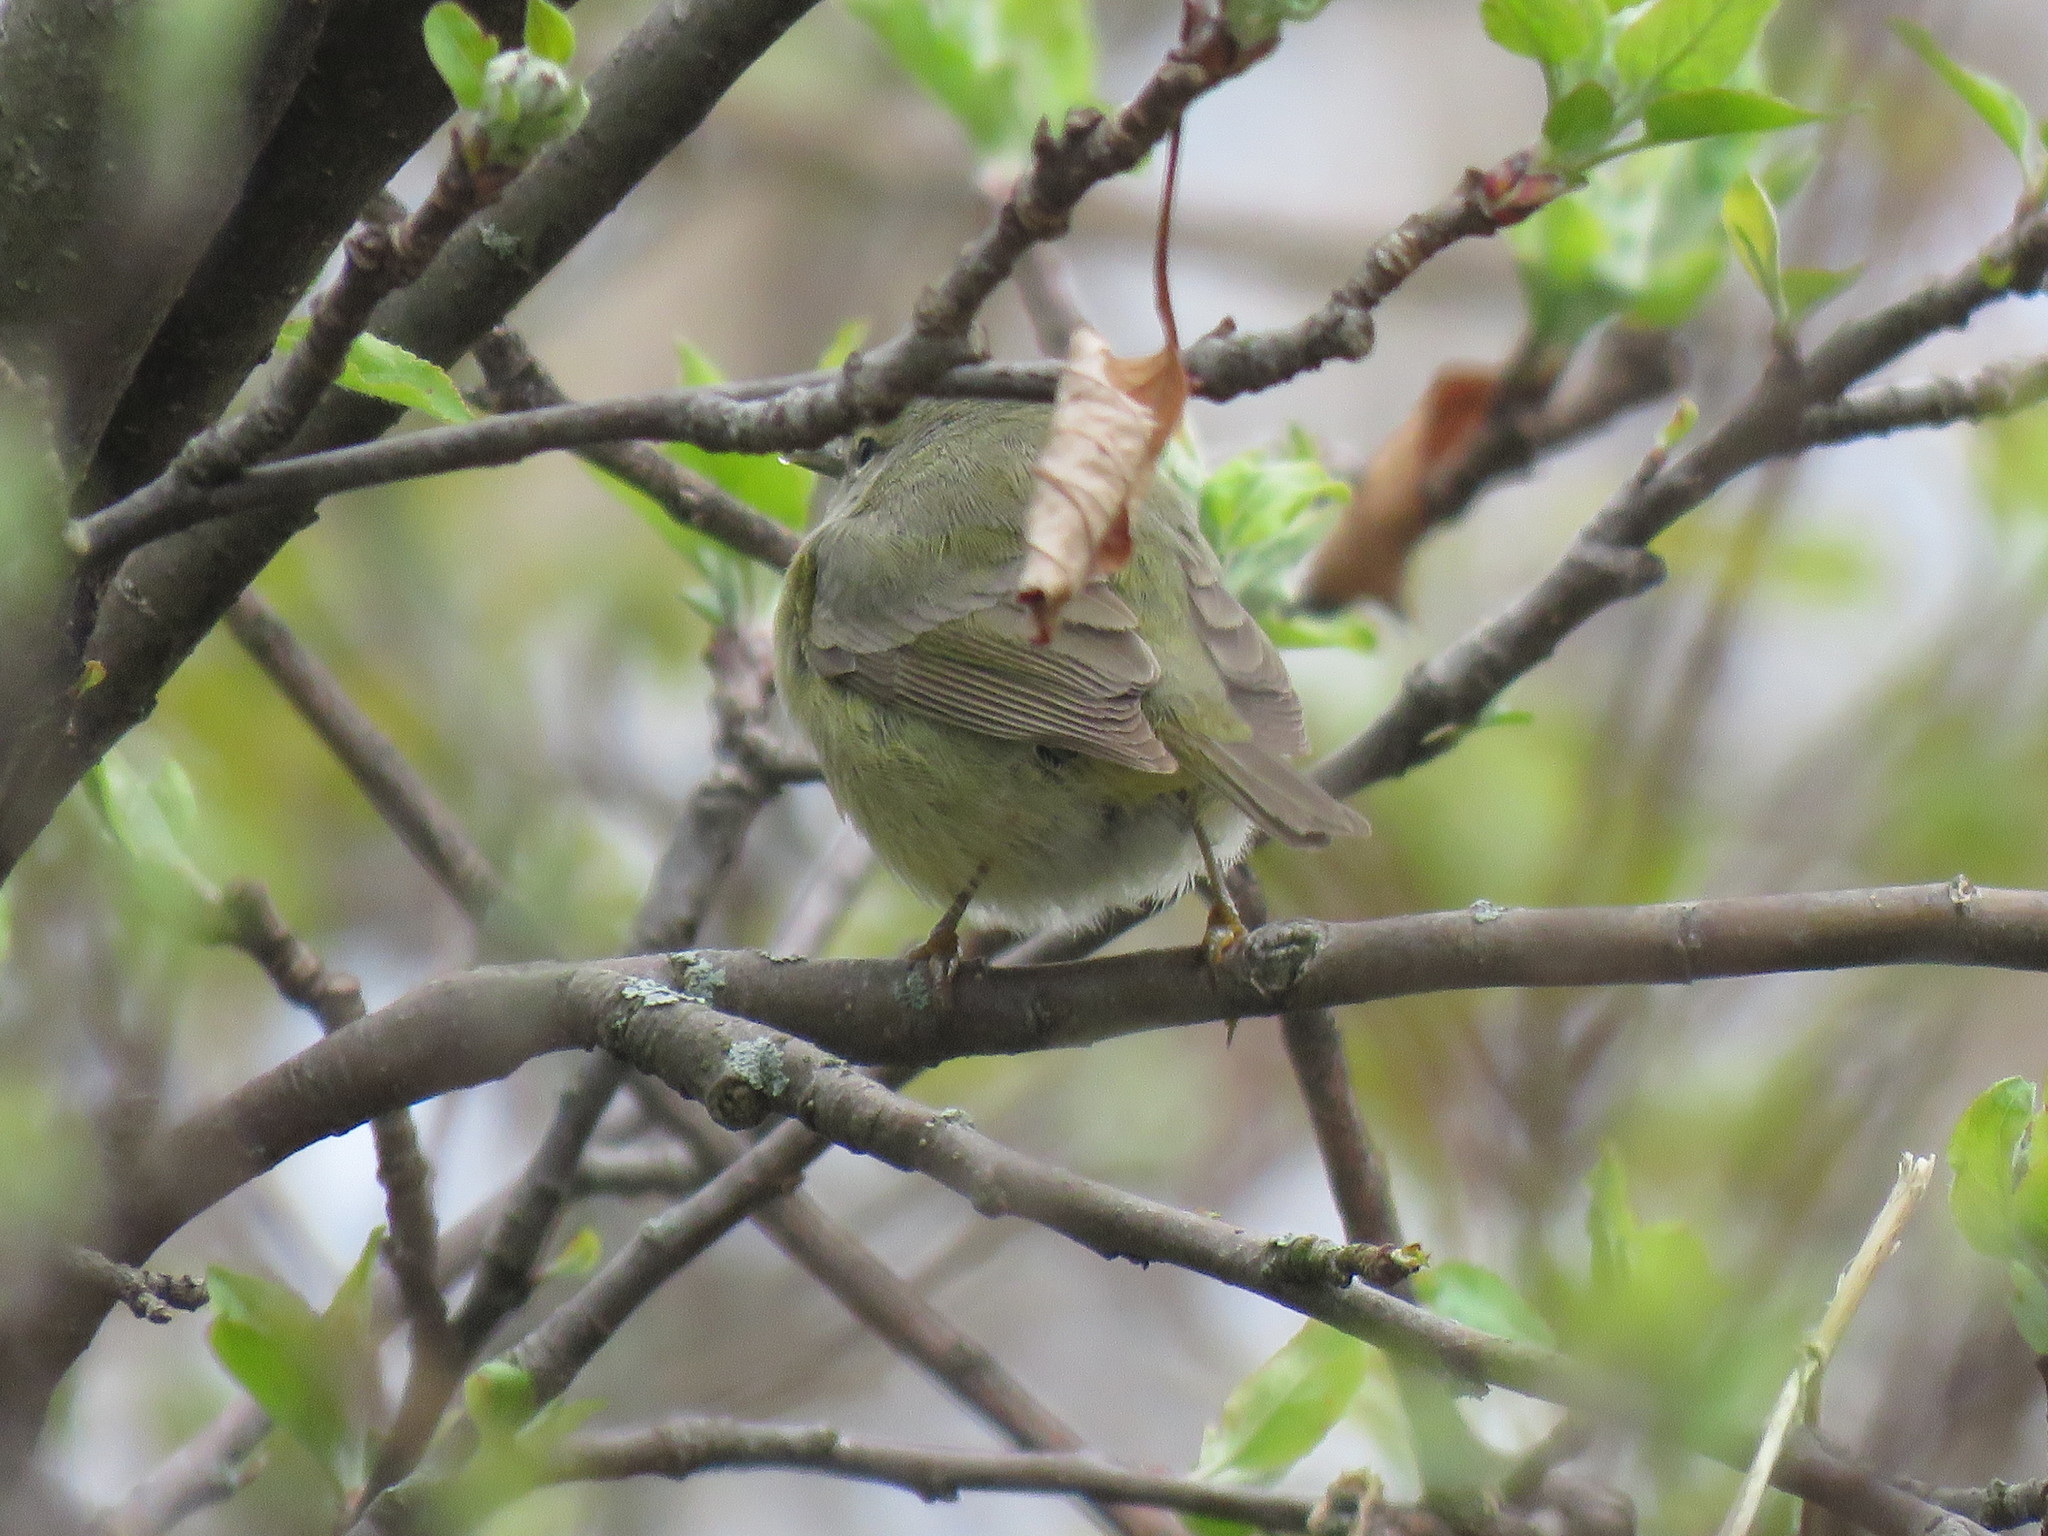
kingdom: Animalia
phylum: Chordata
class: Aves
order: Passeriformes
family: Parulidae
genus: Leiothlypis
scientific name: Leiothlypis celata
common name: Orange-crowned warbler
